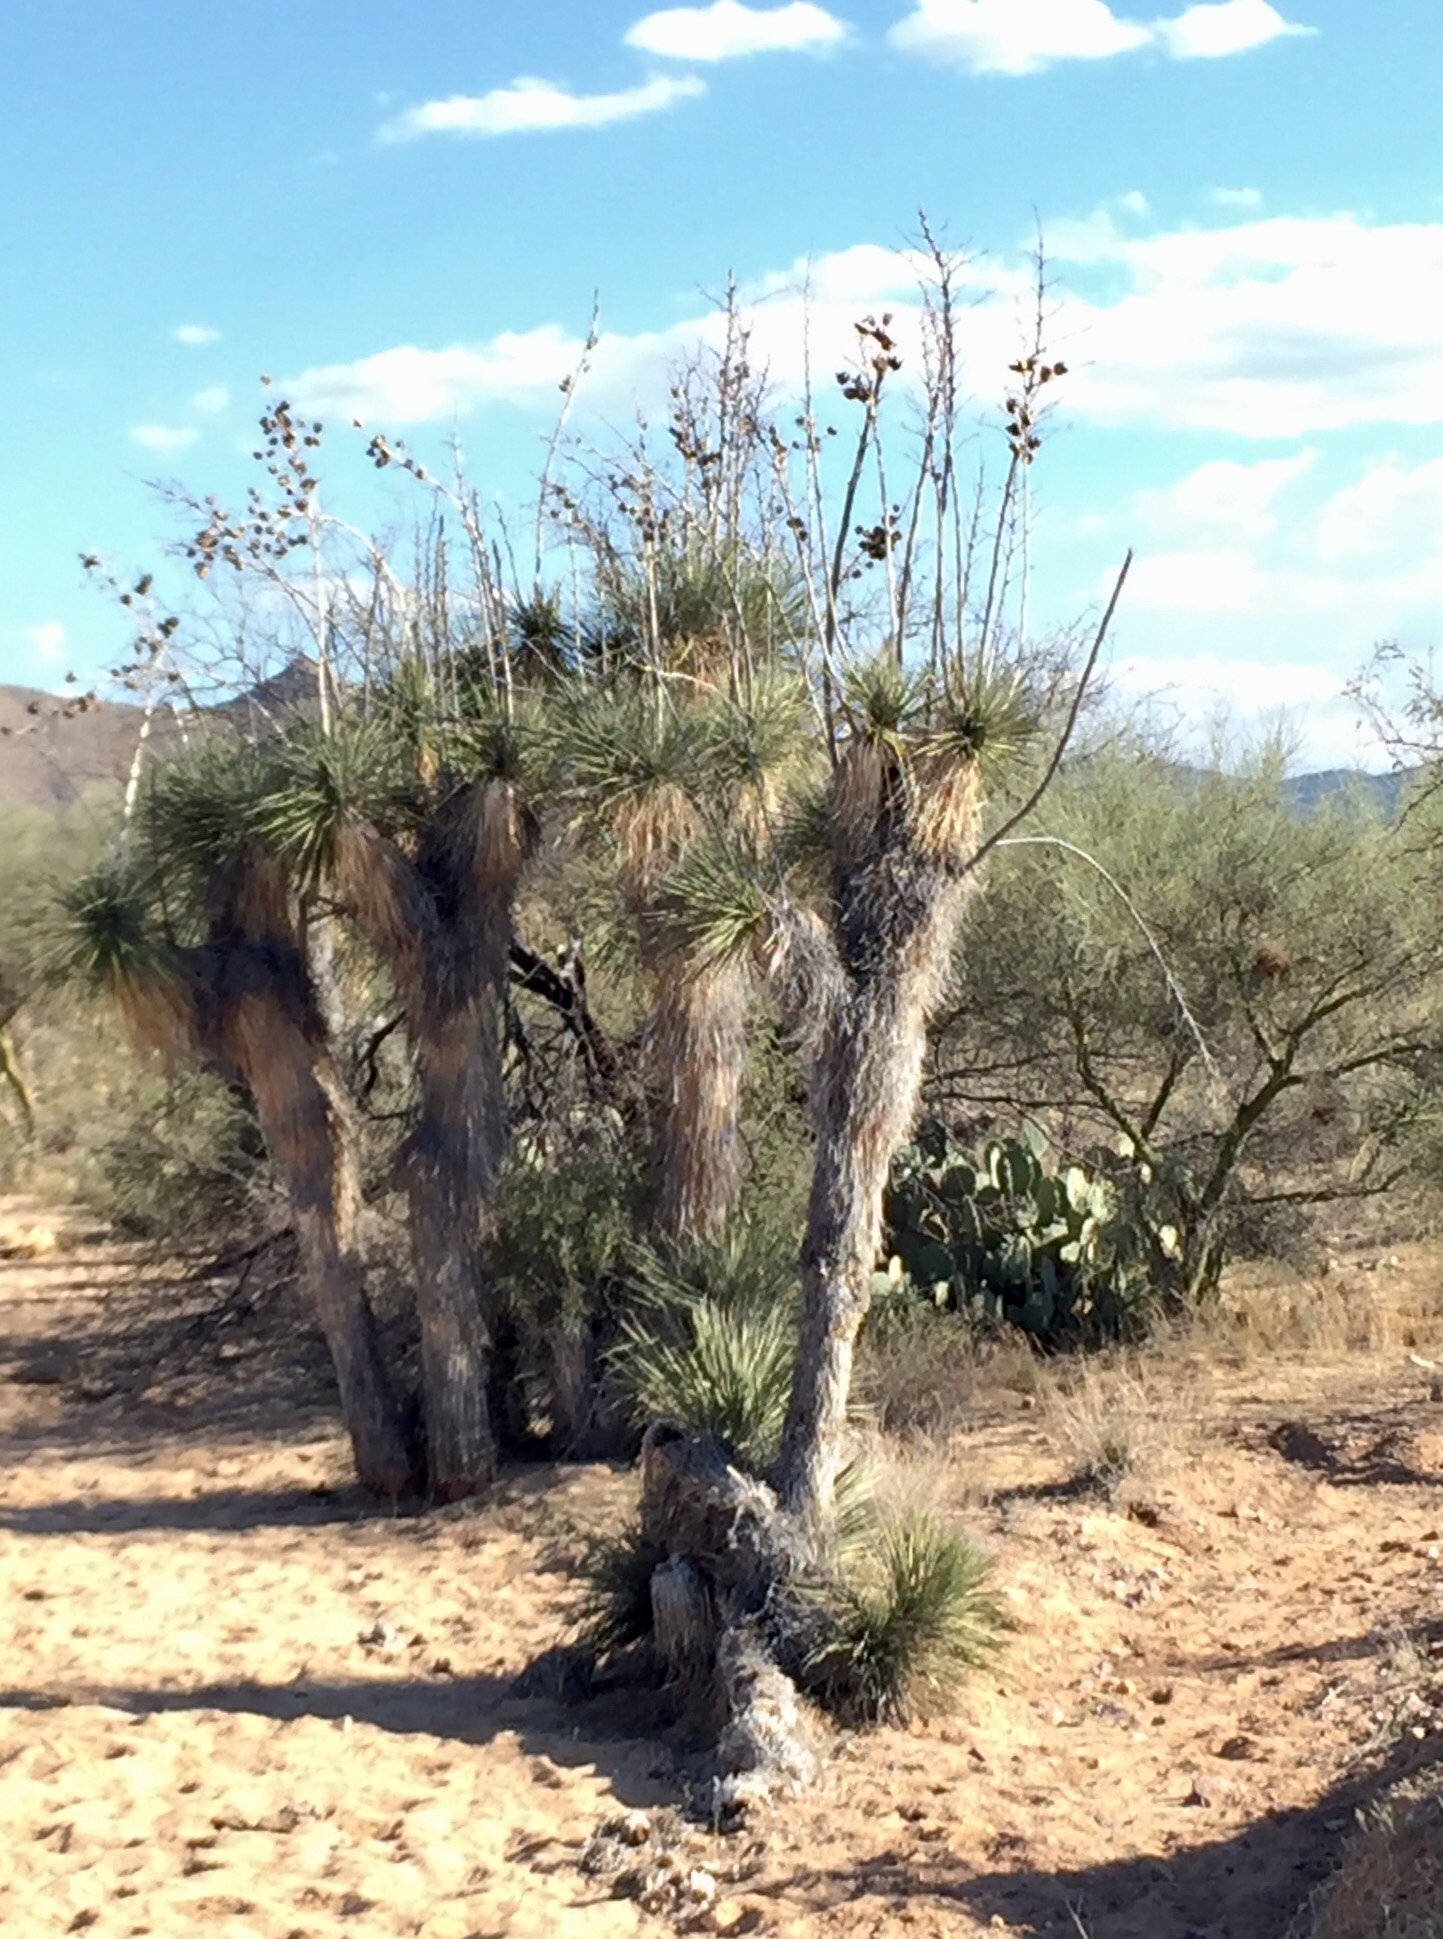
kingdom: Plantae
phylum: Tracheophyta
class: Liliopsida
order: Asparagales
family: Asparagaceae
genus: Yucca
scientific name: Yucca elata
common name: Palmella
